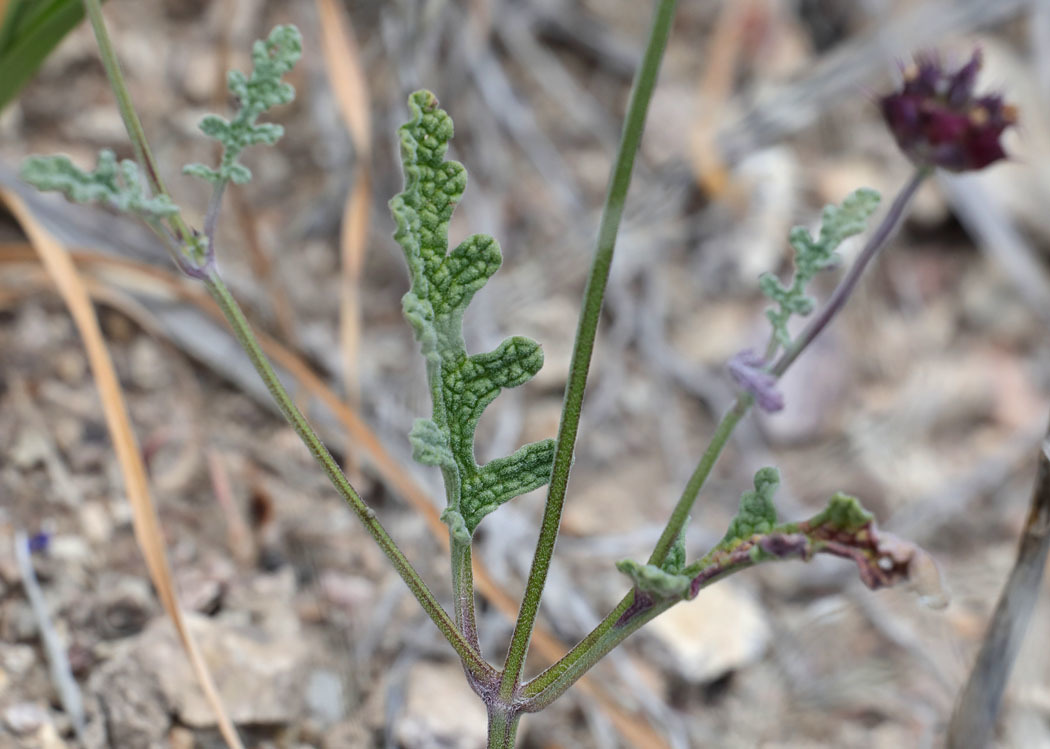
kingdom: Plantae
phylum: Tracheophyta
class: Magnoliopsida
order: Lamiales
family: Lamiaceae
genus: Salvia
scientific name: Salvia columbariae
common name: Chia
